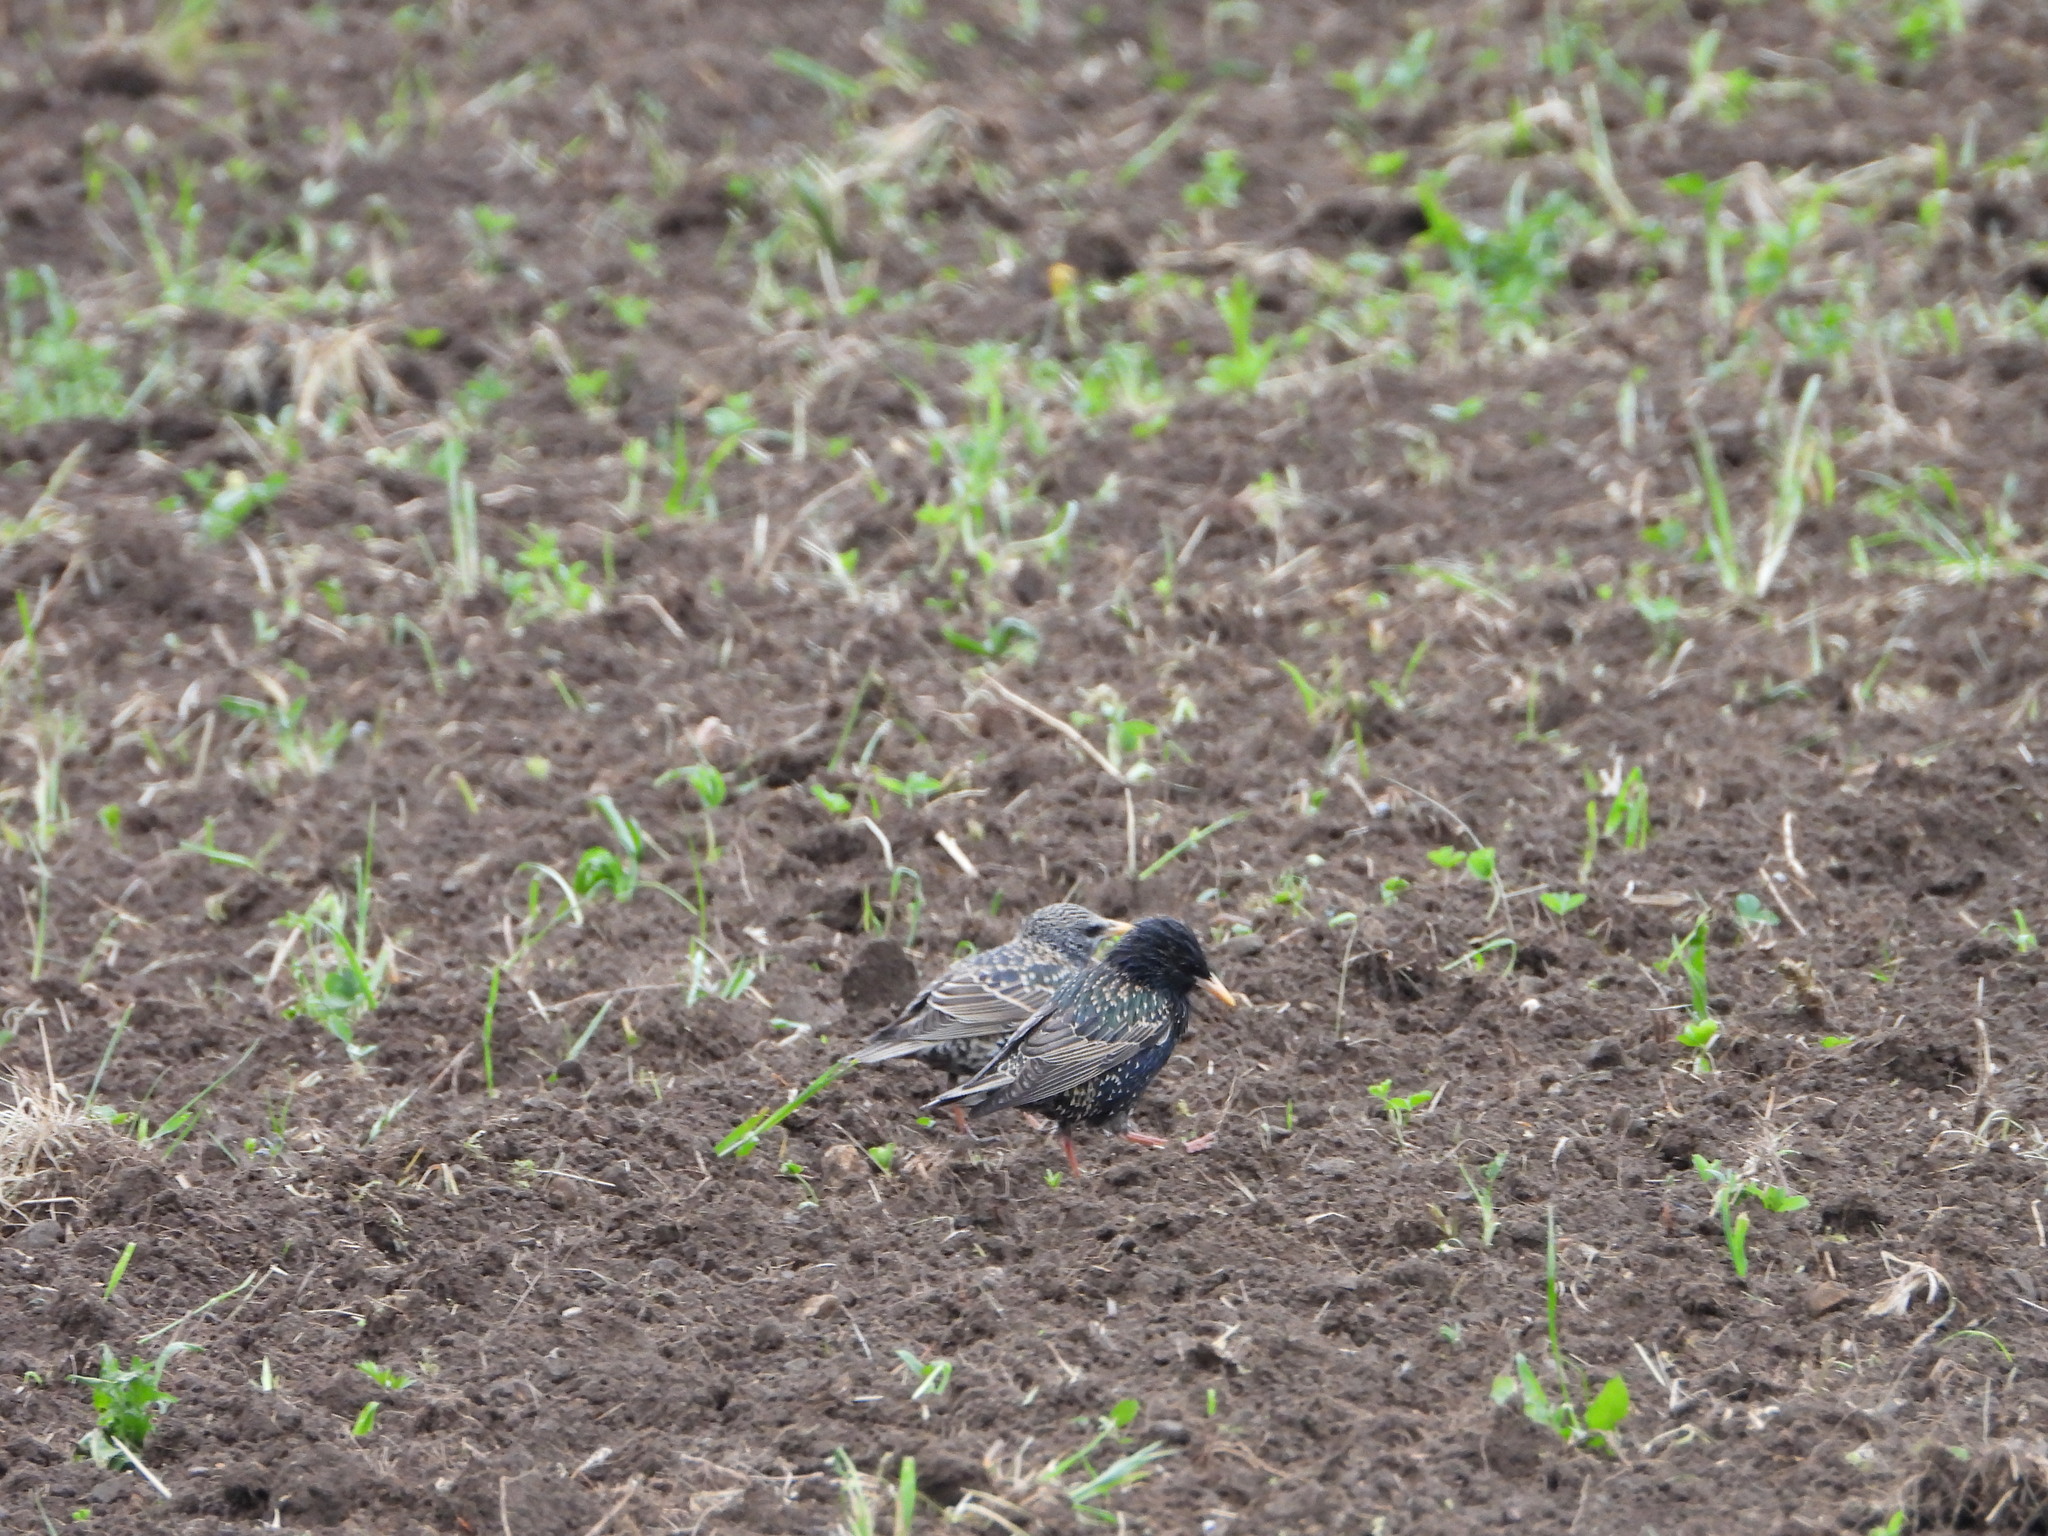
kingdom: Animalia
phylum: Chordata
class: Aves
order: Passeriformes
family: Sturnidae
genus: Sturnus
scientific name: Sturnus vulgaris
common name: Common starling
